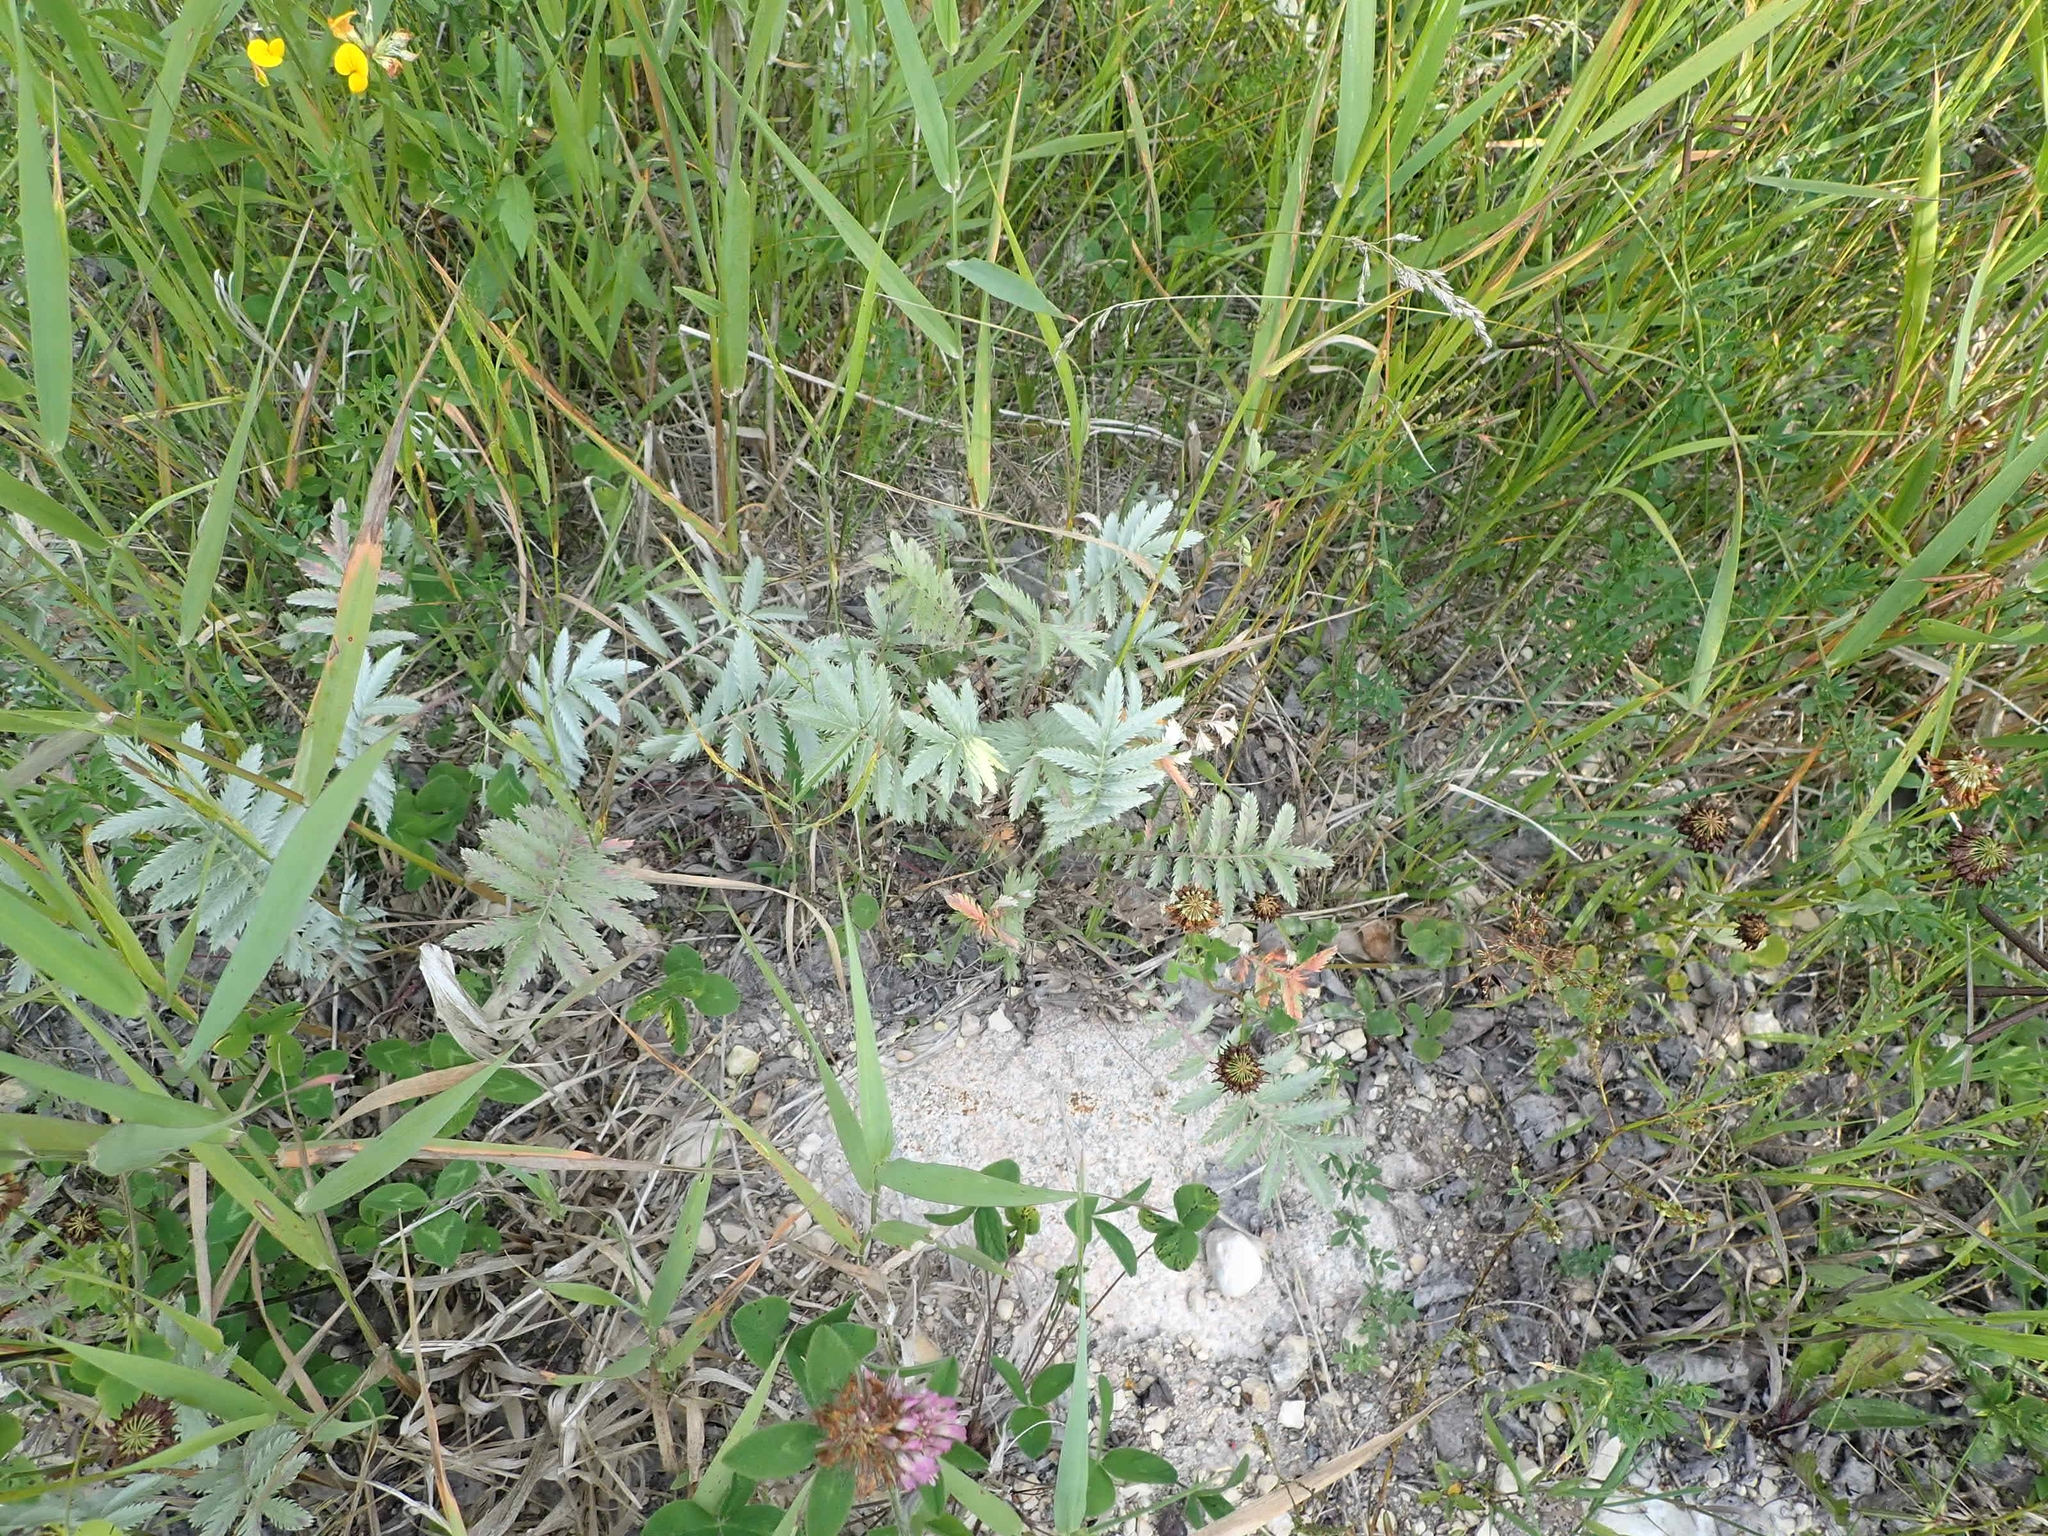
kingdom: Plantae
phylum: Tracheophyta
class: Magnoliopsida
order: Rosales
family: Rosaceae
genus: Argentina
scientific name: Argentina anserina
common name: Common silverweed
